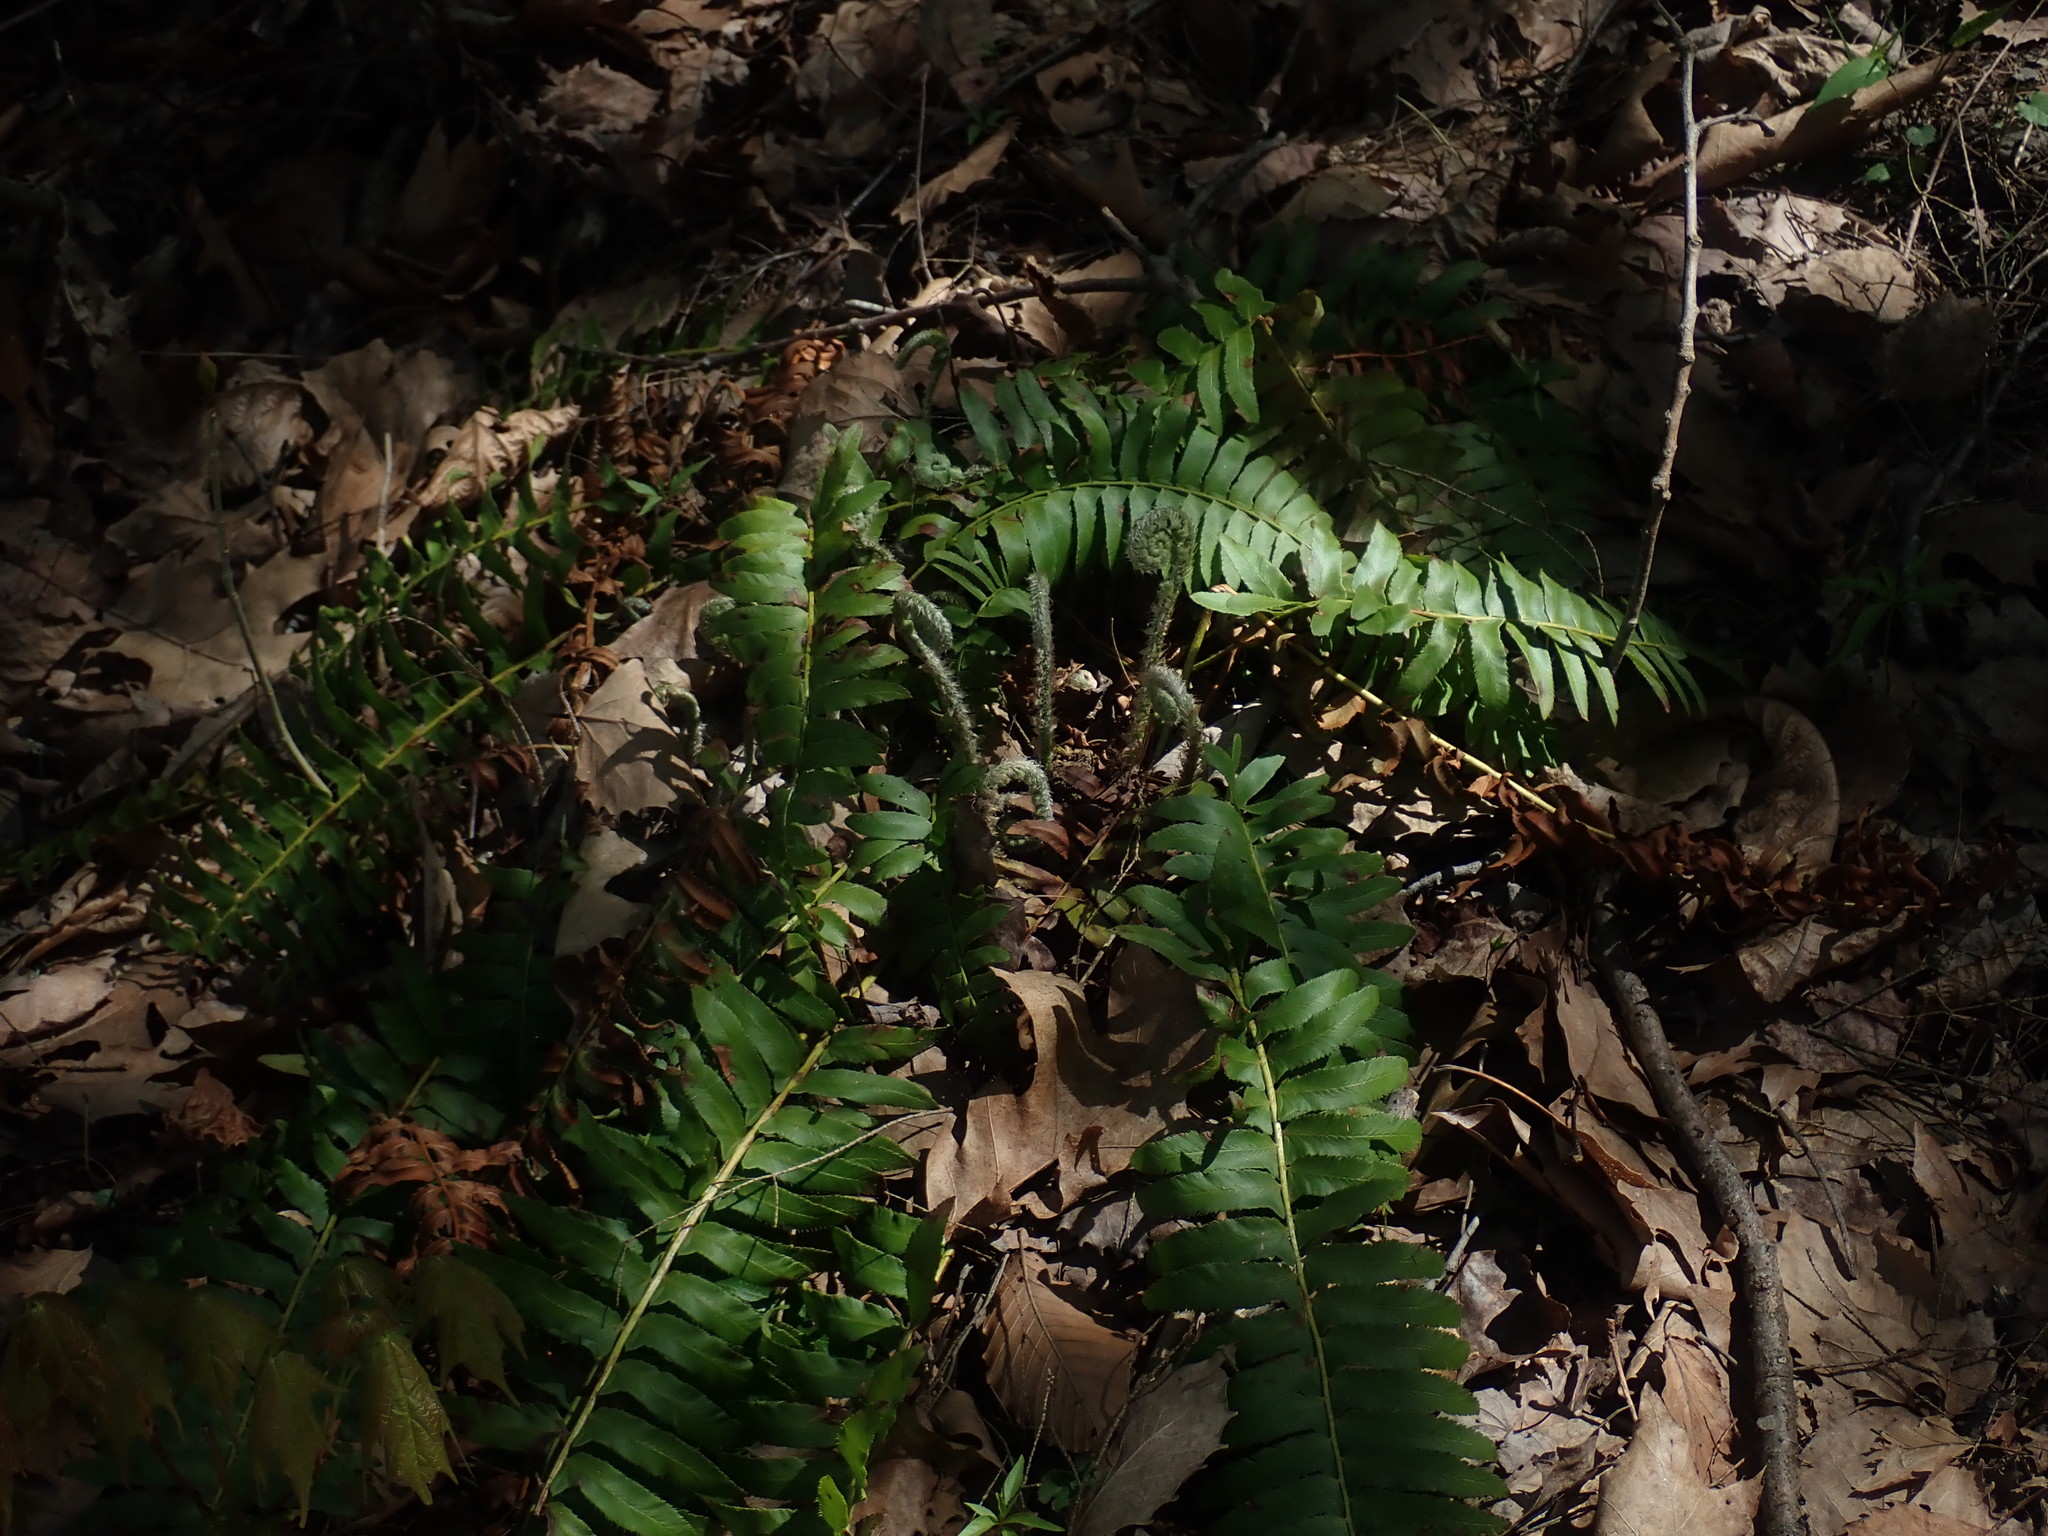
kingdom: Plantae
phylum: Tracheophyta
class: Polypodiopsida
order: Polypodiales
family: Dryopteridaceae
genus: Polystichum
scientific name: Polystichum acrostichoides
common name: Christmas fern
